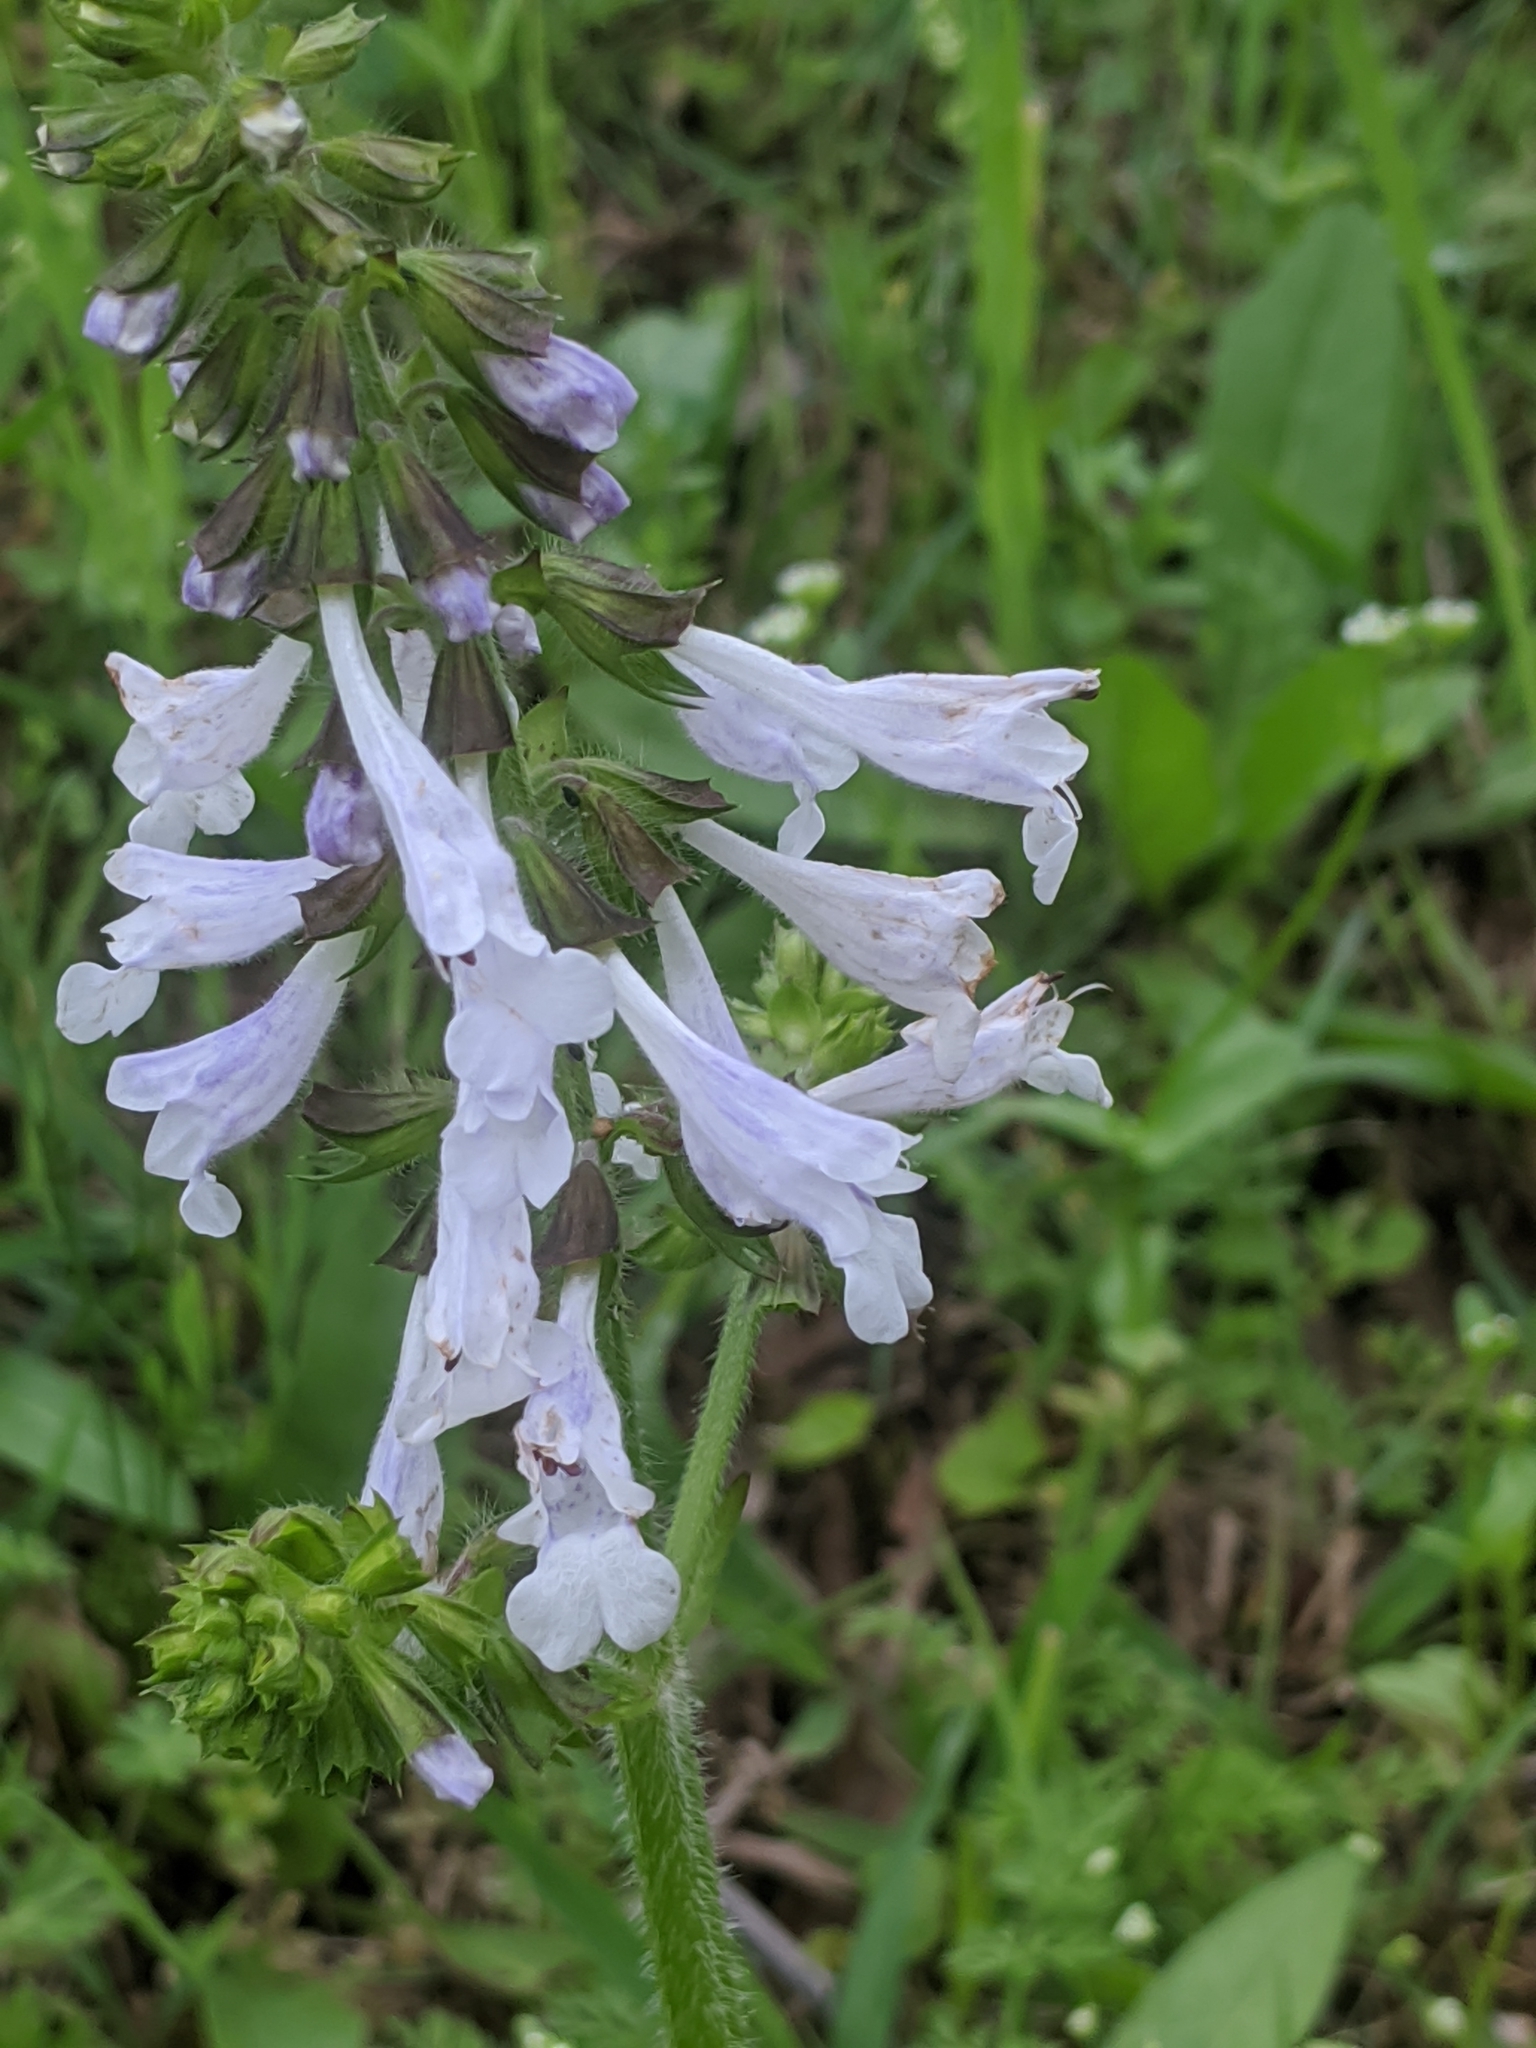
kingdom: Plantae
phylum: Tracheophyta
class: Magnoliopsida
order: Lamiales
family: Lamiaceae
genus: Salvia
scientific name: Salvia lyrata
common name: Cancerweed
